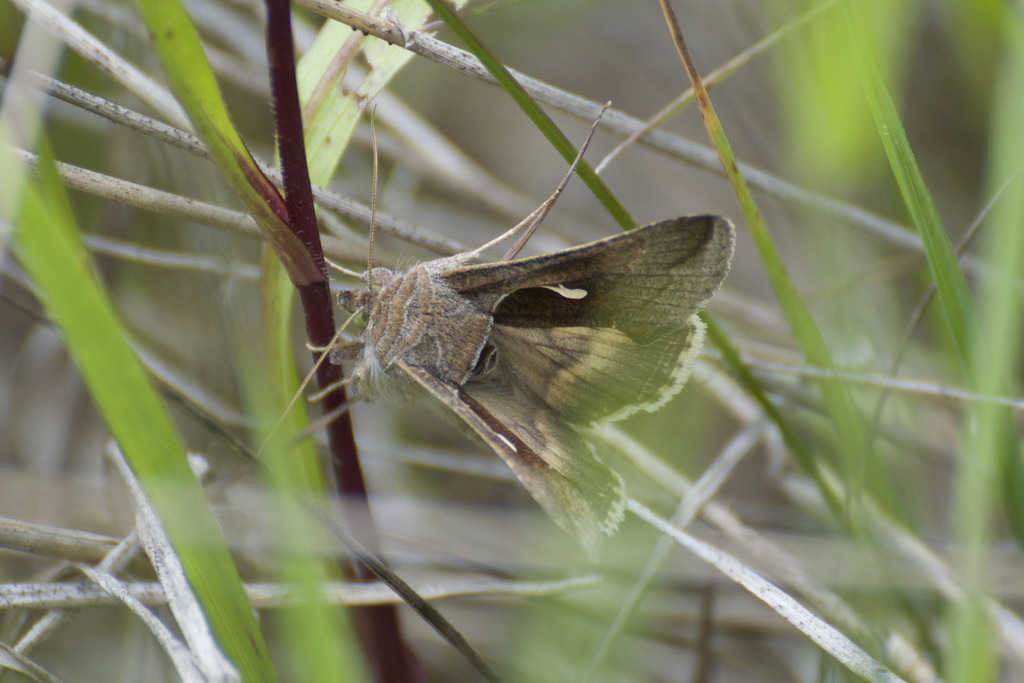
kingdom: Animalia
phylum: Arthropoda
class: Insecta
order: Lepidoptera
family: Noctuidae
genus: Anagrapha
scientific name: Anagrapha falcifera
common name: Celery looper
